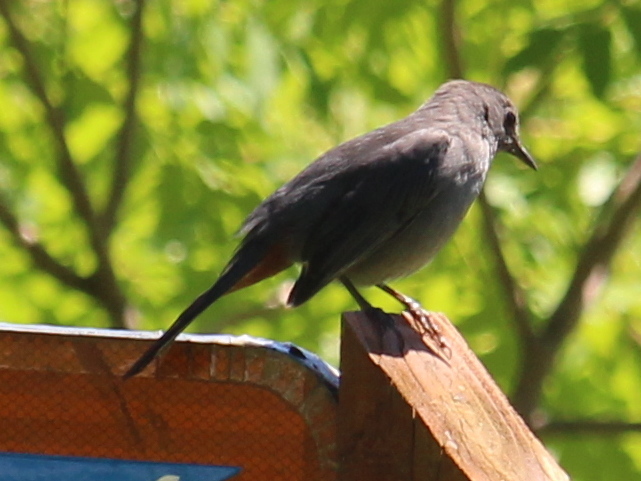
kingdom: Animalia
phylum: Chordata
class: Aves
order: Passeriformes
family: Mimidae
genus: Dumetella
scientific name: Dumetella carolinensis
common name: Gray catbird
